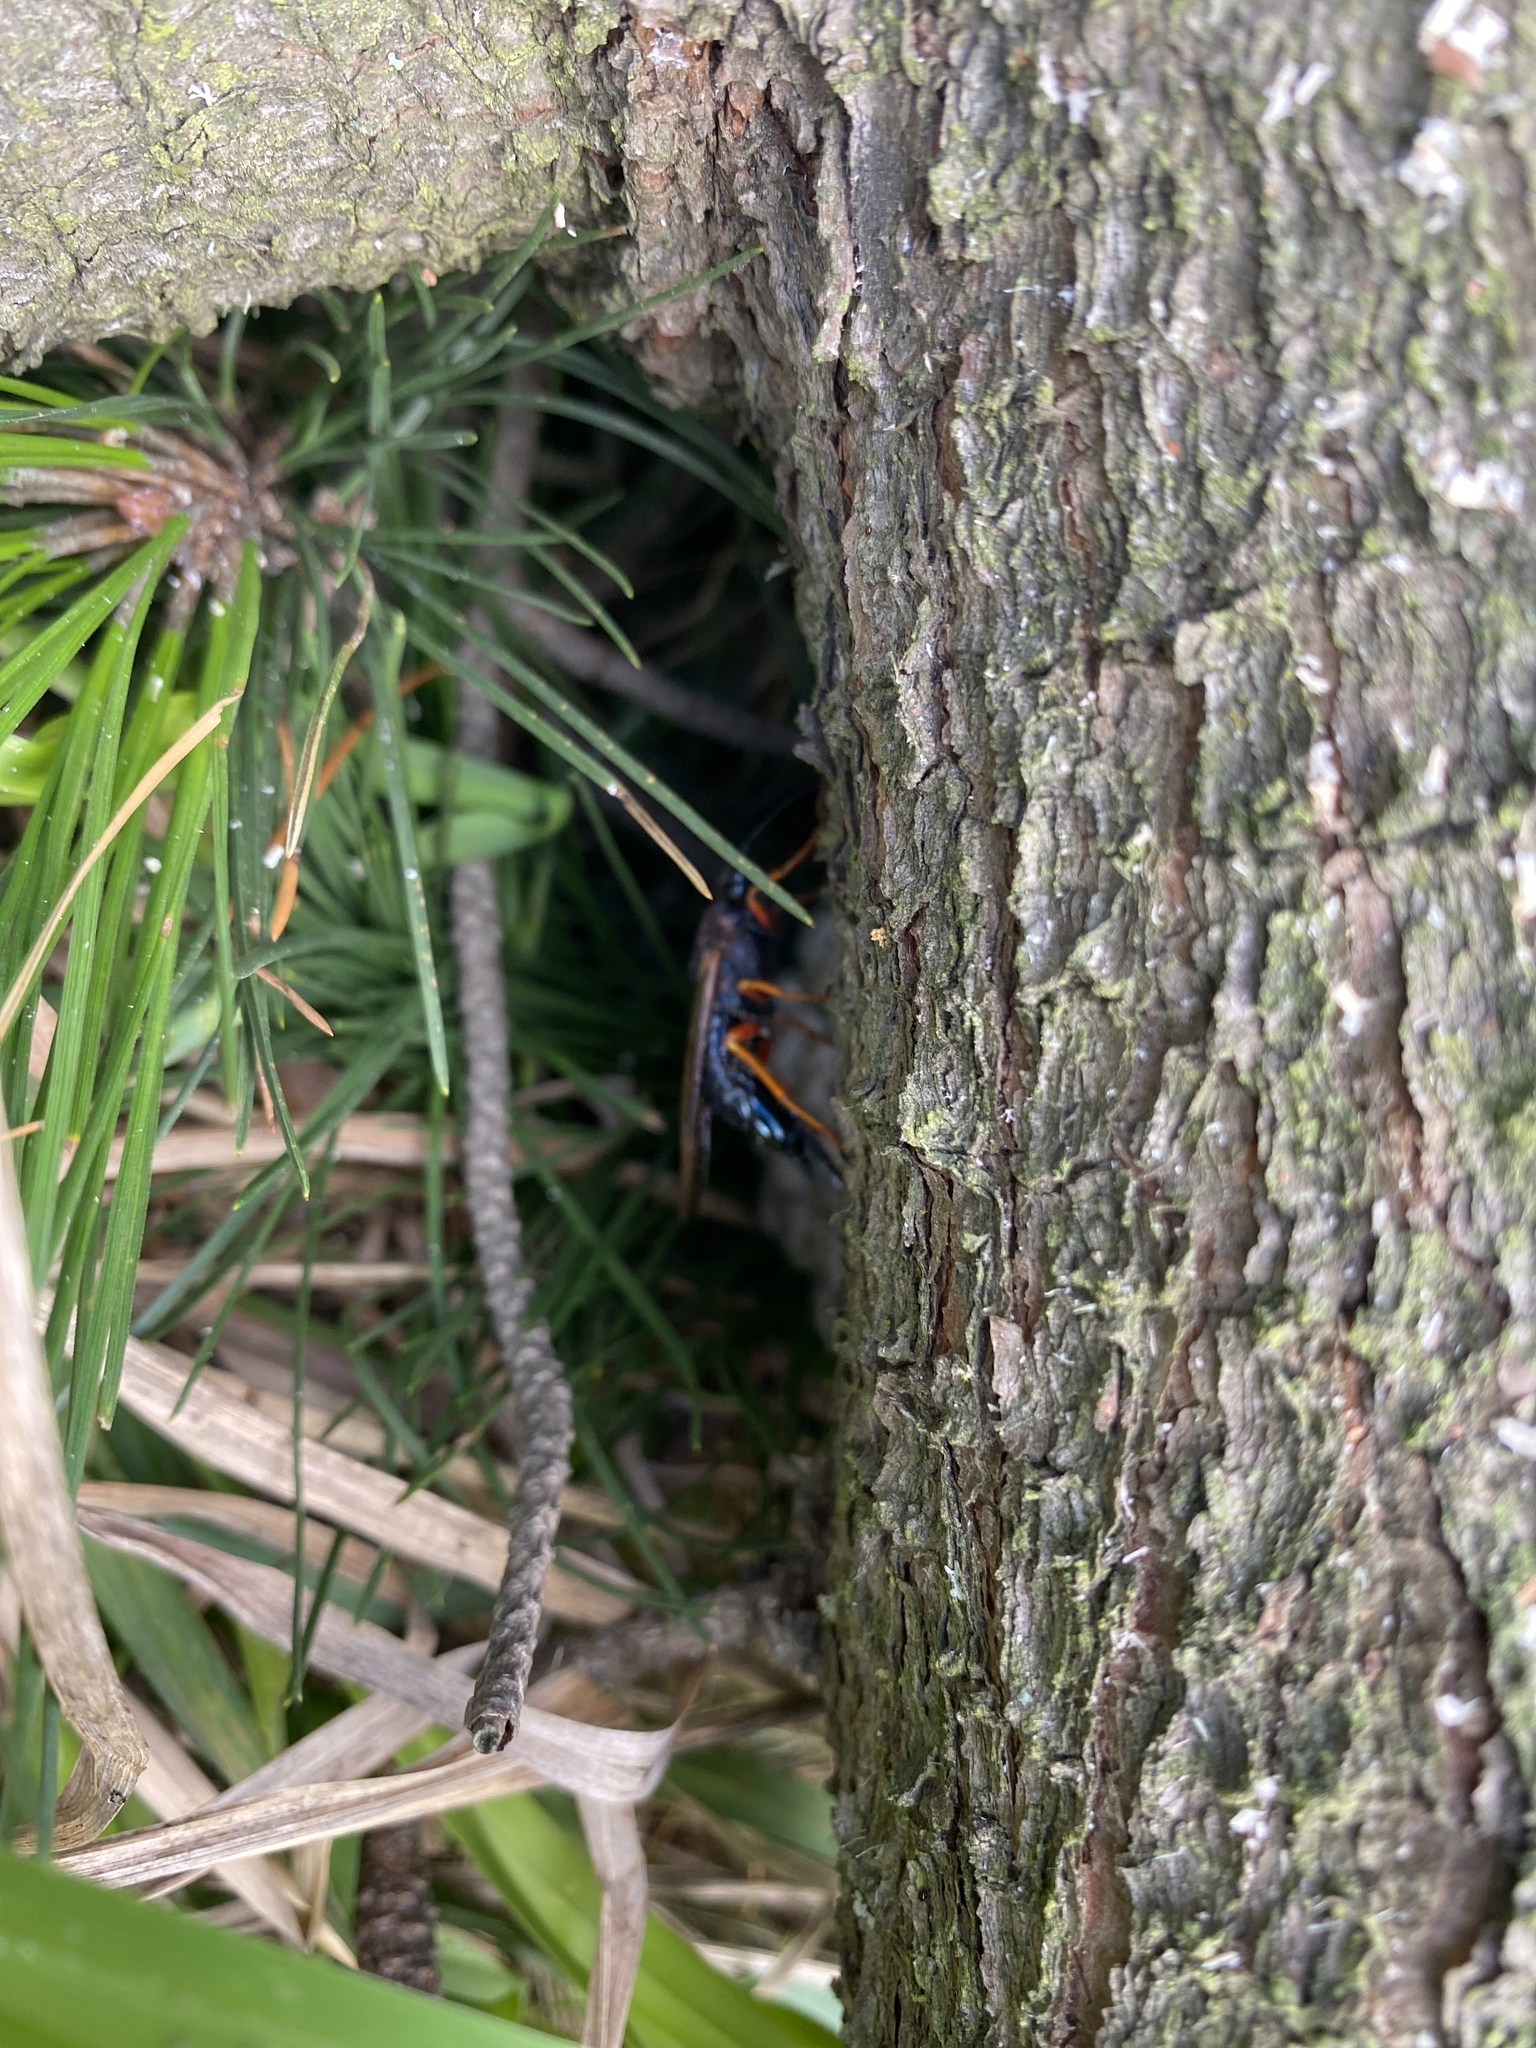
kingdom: Animalia
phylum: Arthropoda
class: Insecta
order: Hymenoptera
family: Siricidae
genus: Sirex
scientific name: Sirex noctilio
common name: Woodwasp
